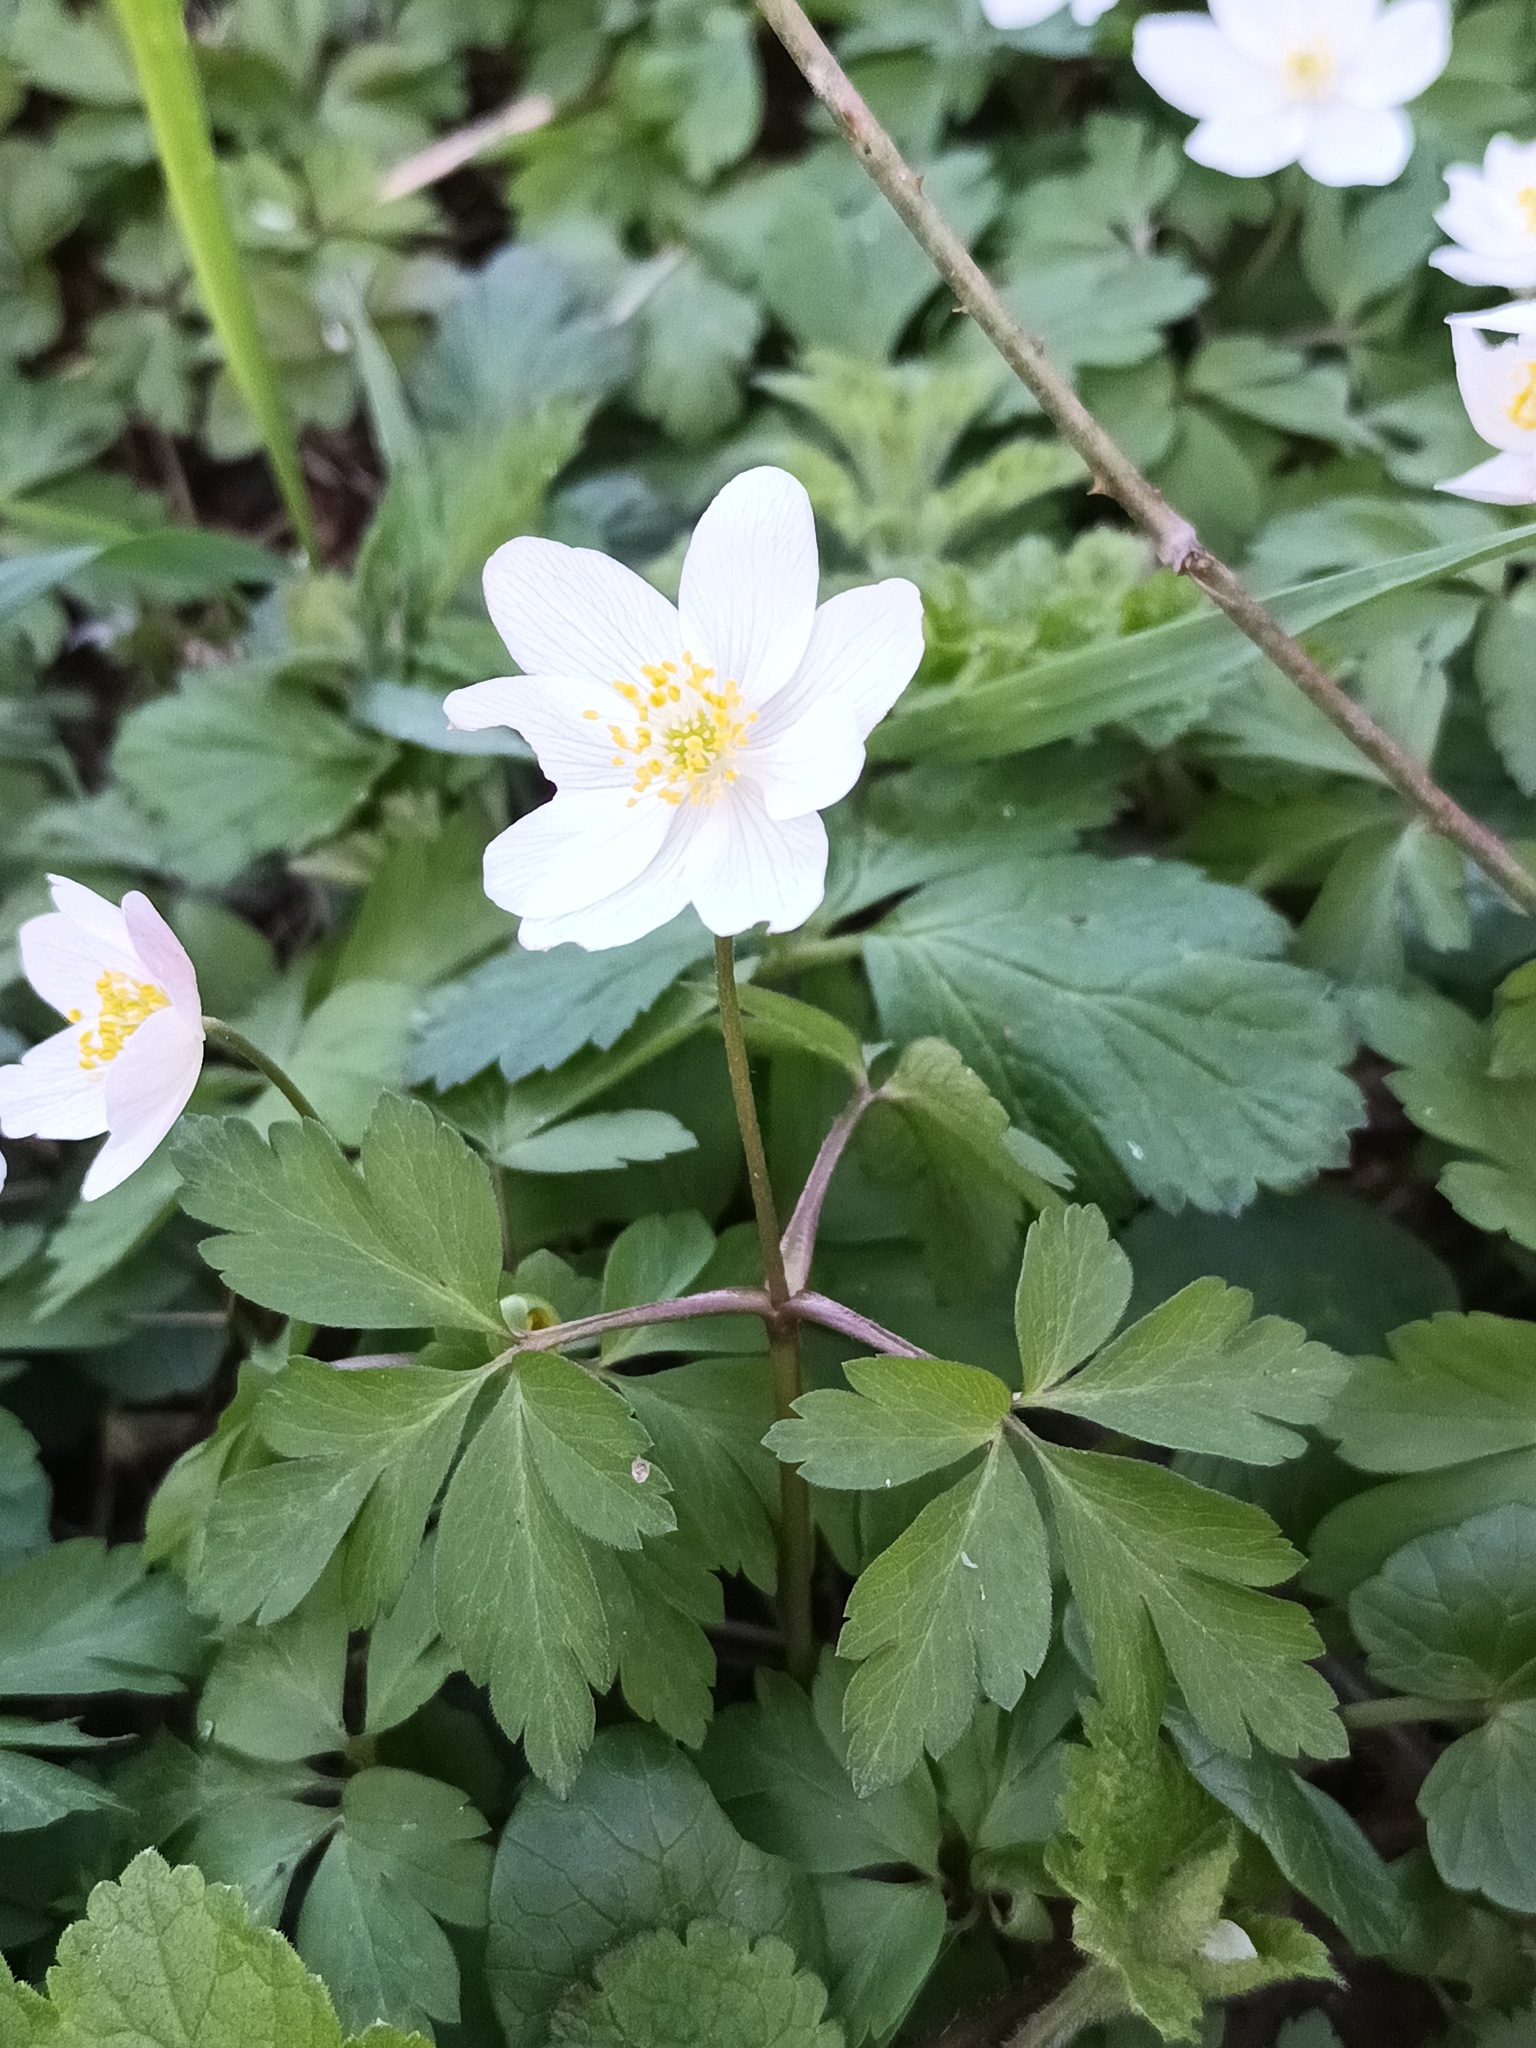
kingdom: Plantae
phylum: Tracheophyta
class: Magnoliopsida
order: Ranunculales
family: Ranunculaceae
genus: Anemone
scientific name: Anemone nemorosa
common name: Wood anemone
